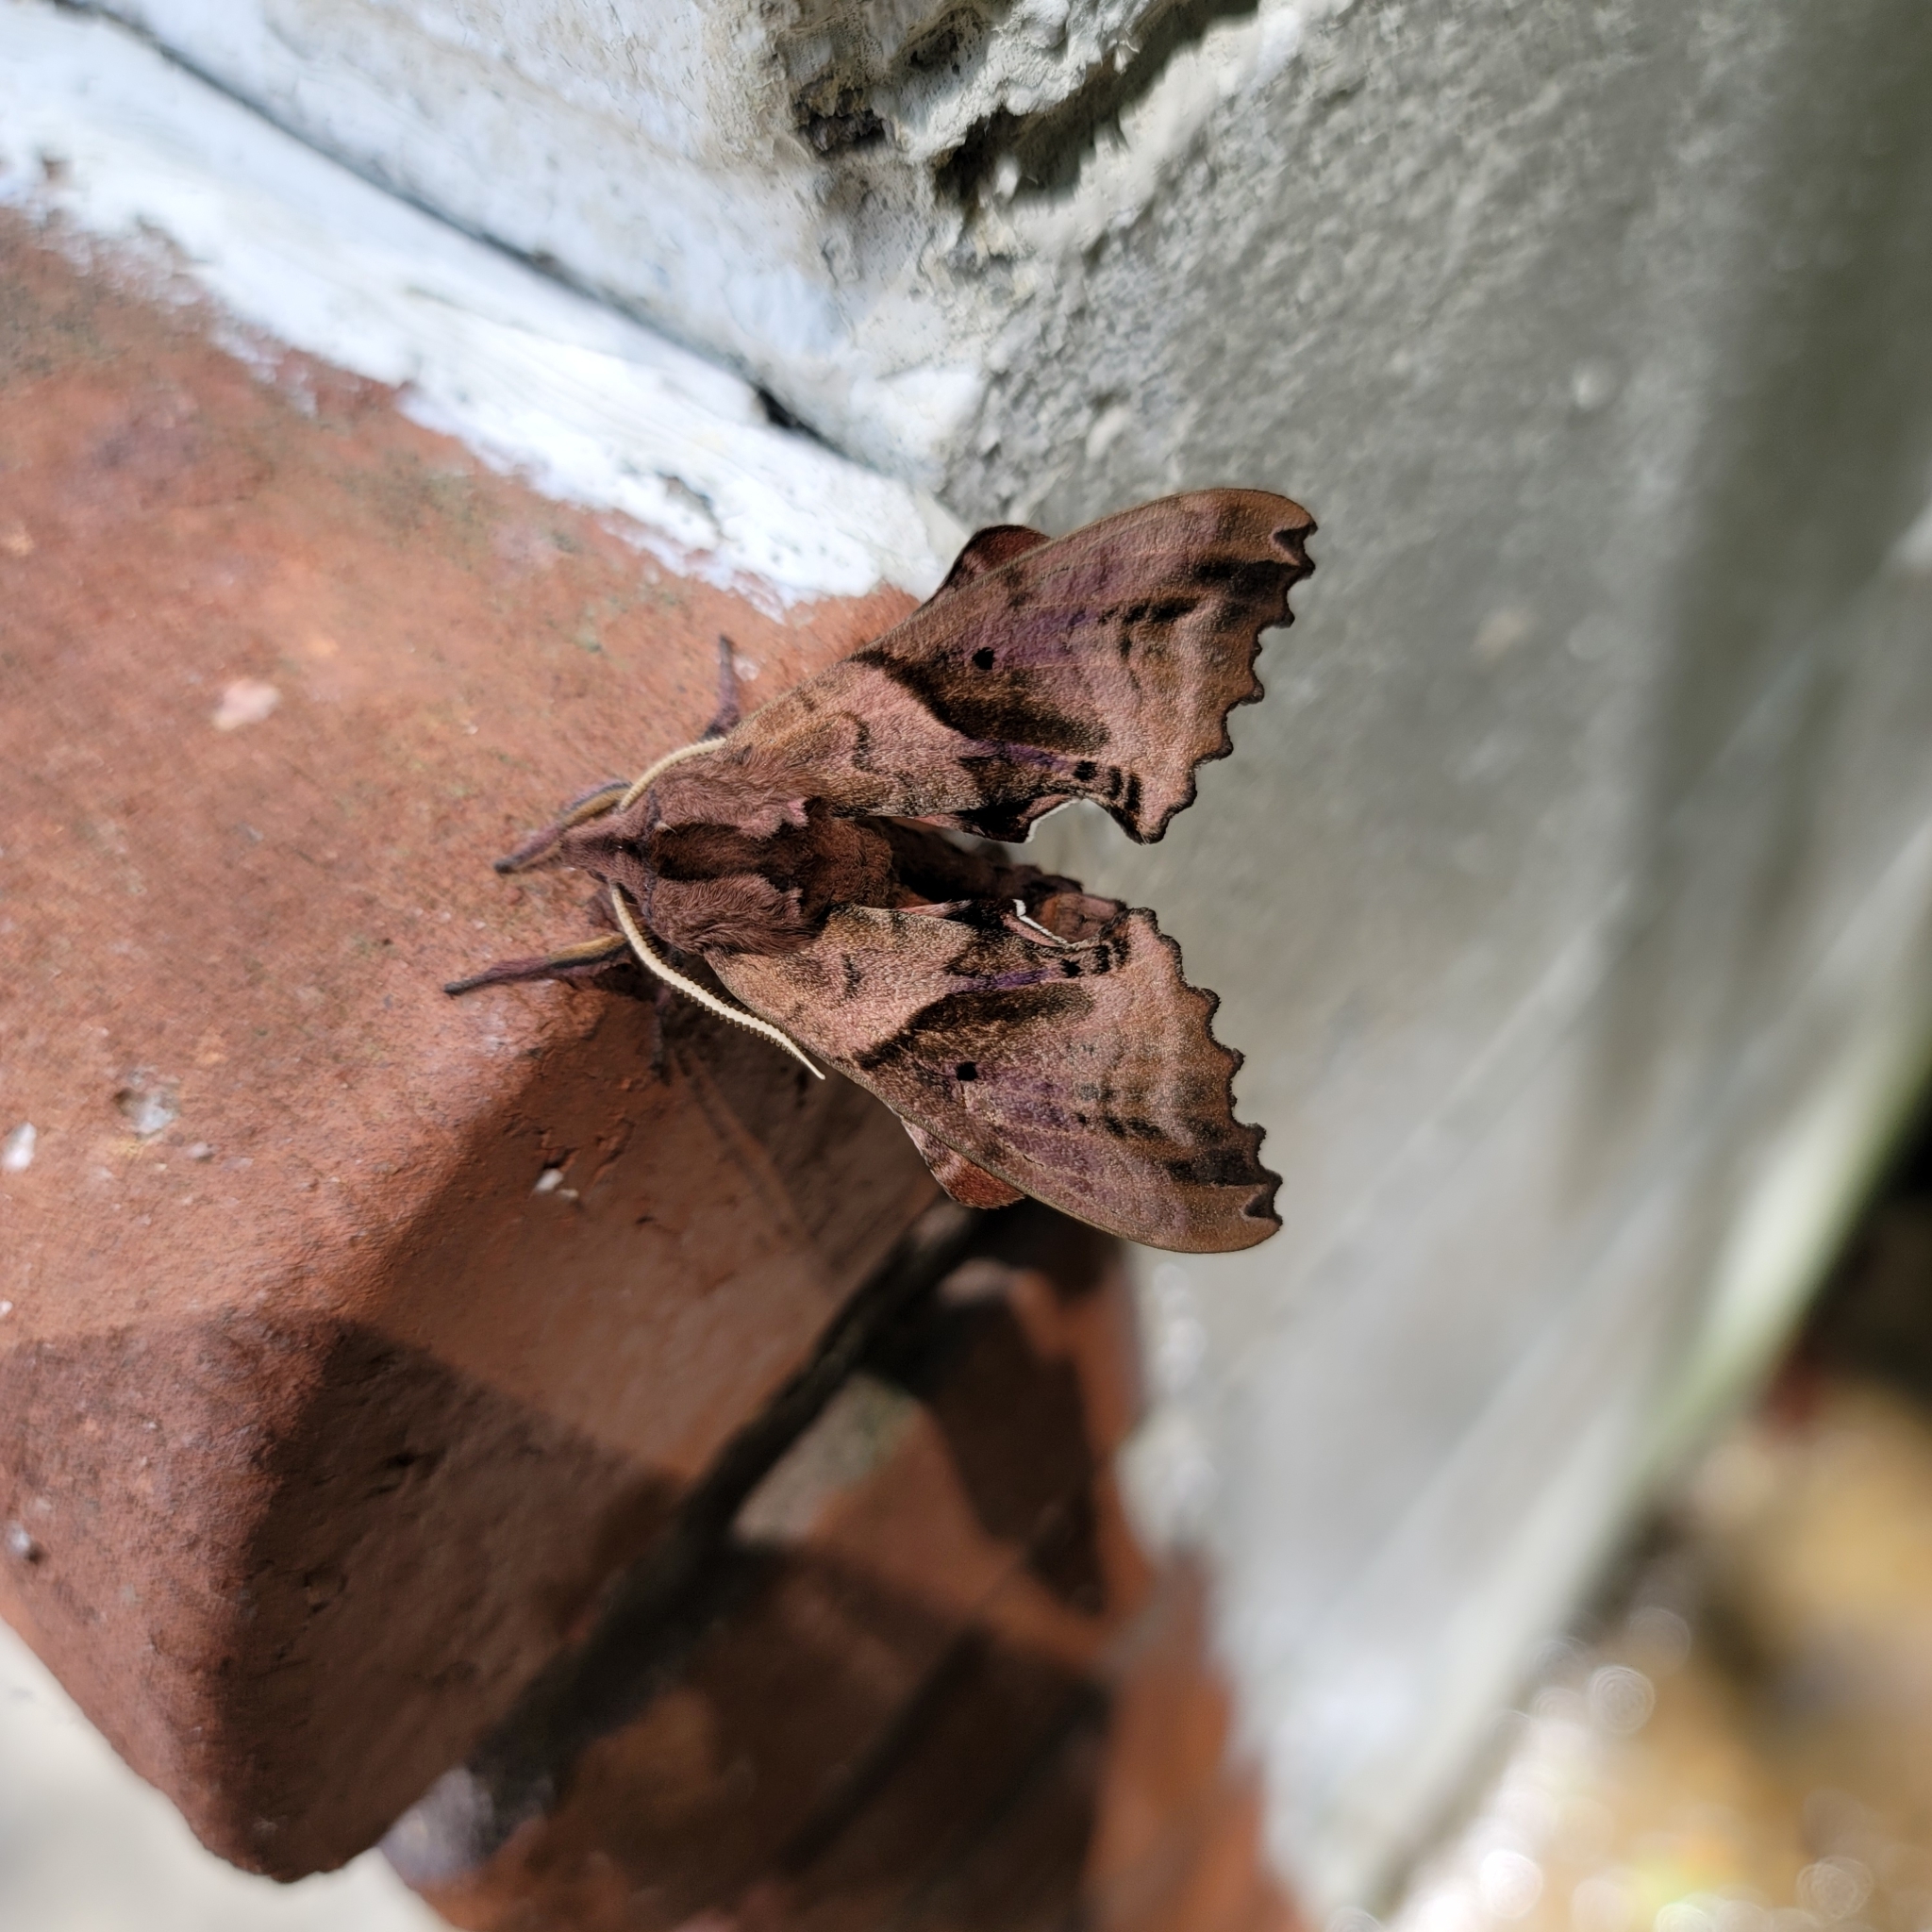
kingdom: Animalia
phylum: Arthropoda
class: Insecta
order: Lepidoptera
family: Sphingidae
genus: Paonias
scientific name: Paonias excaecata
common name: Blind-eyed sphinx
